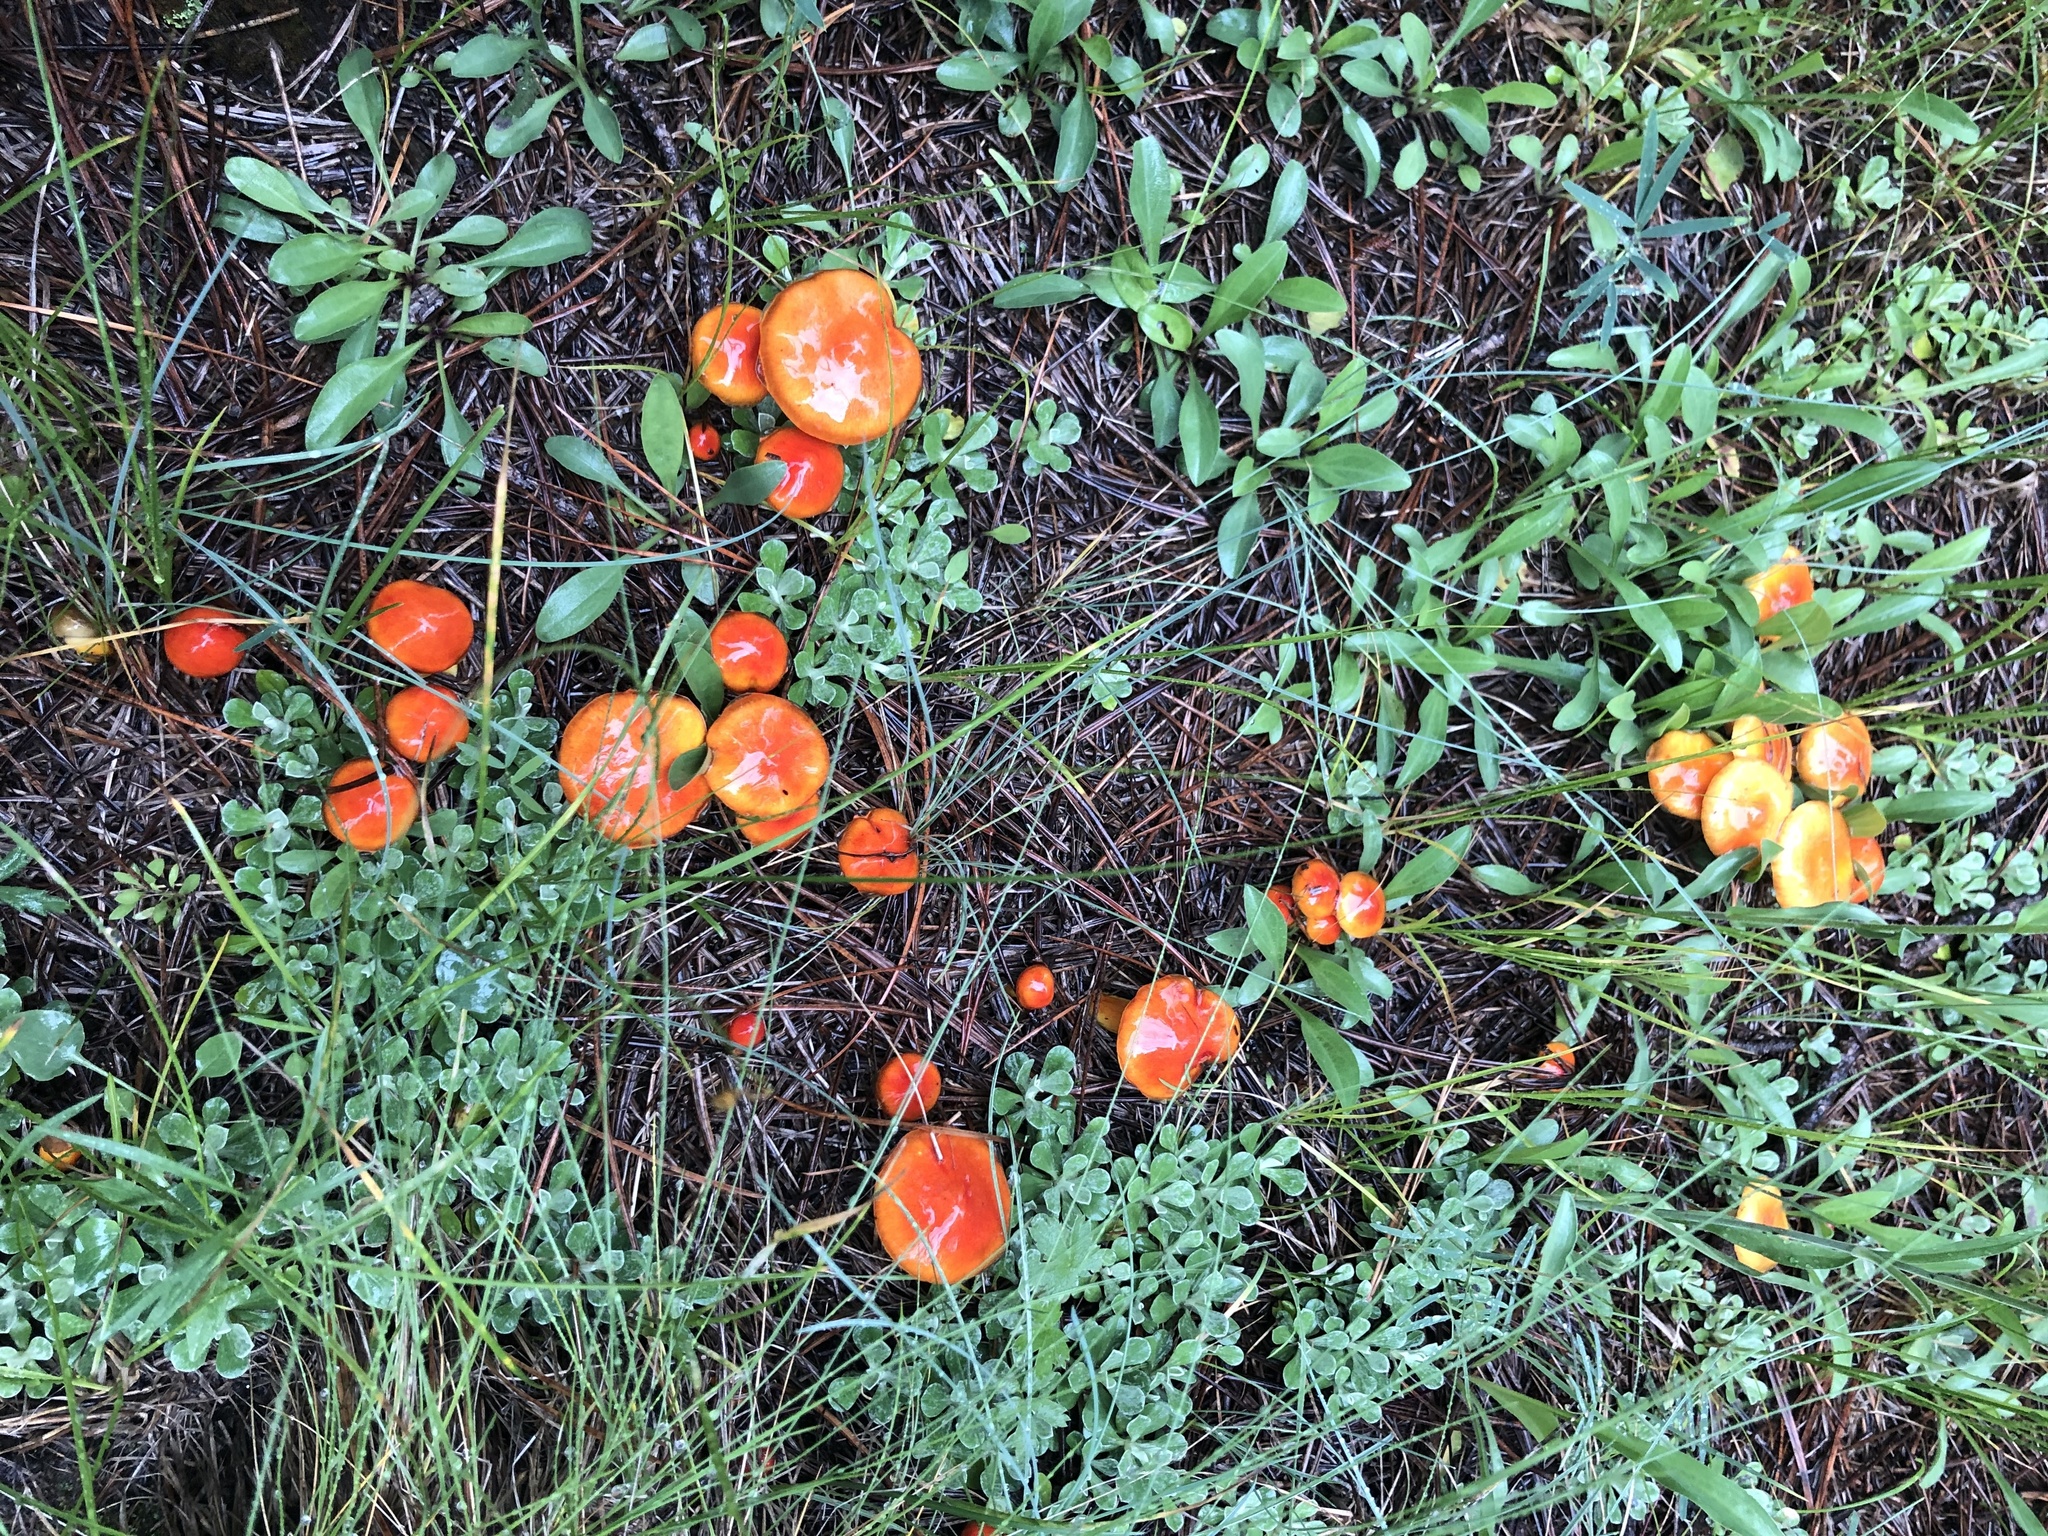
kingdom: Fungi
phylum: Basidiomycota
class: Agaricomycetes
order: Agaricales
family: Hygrophoraceae
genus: Hygrophorus
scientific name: Hygrophorus siccipes
